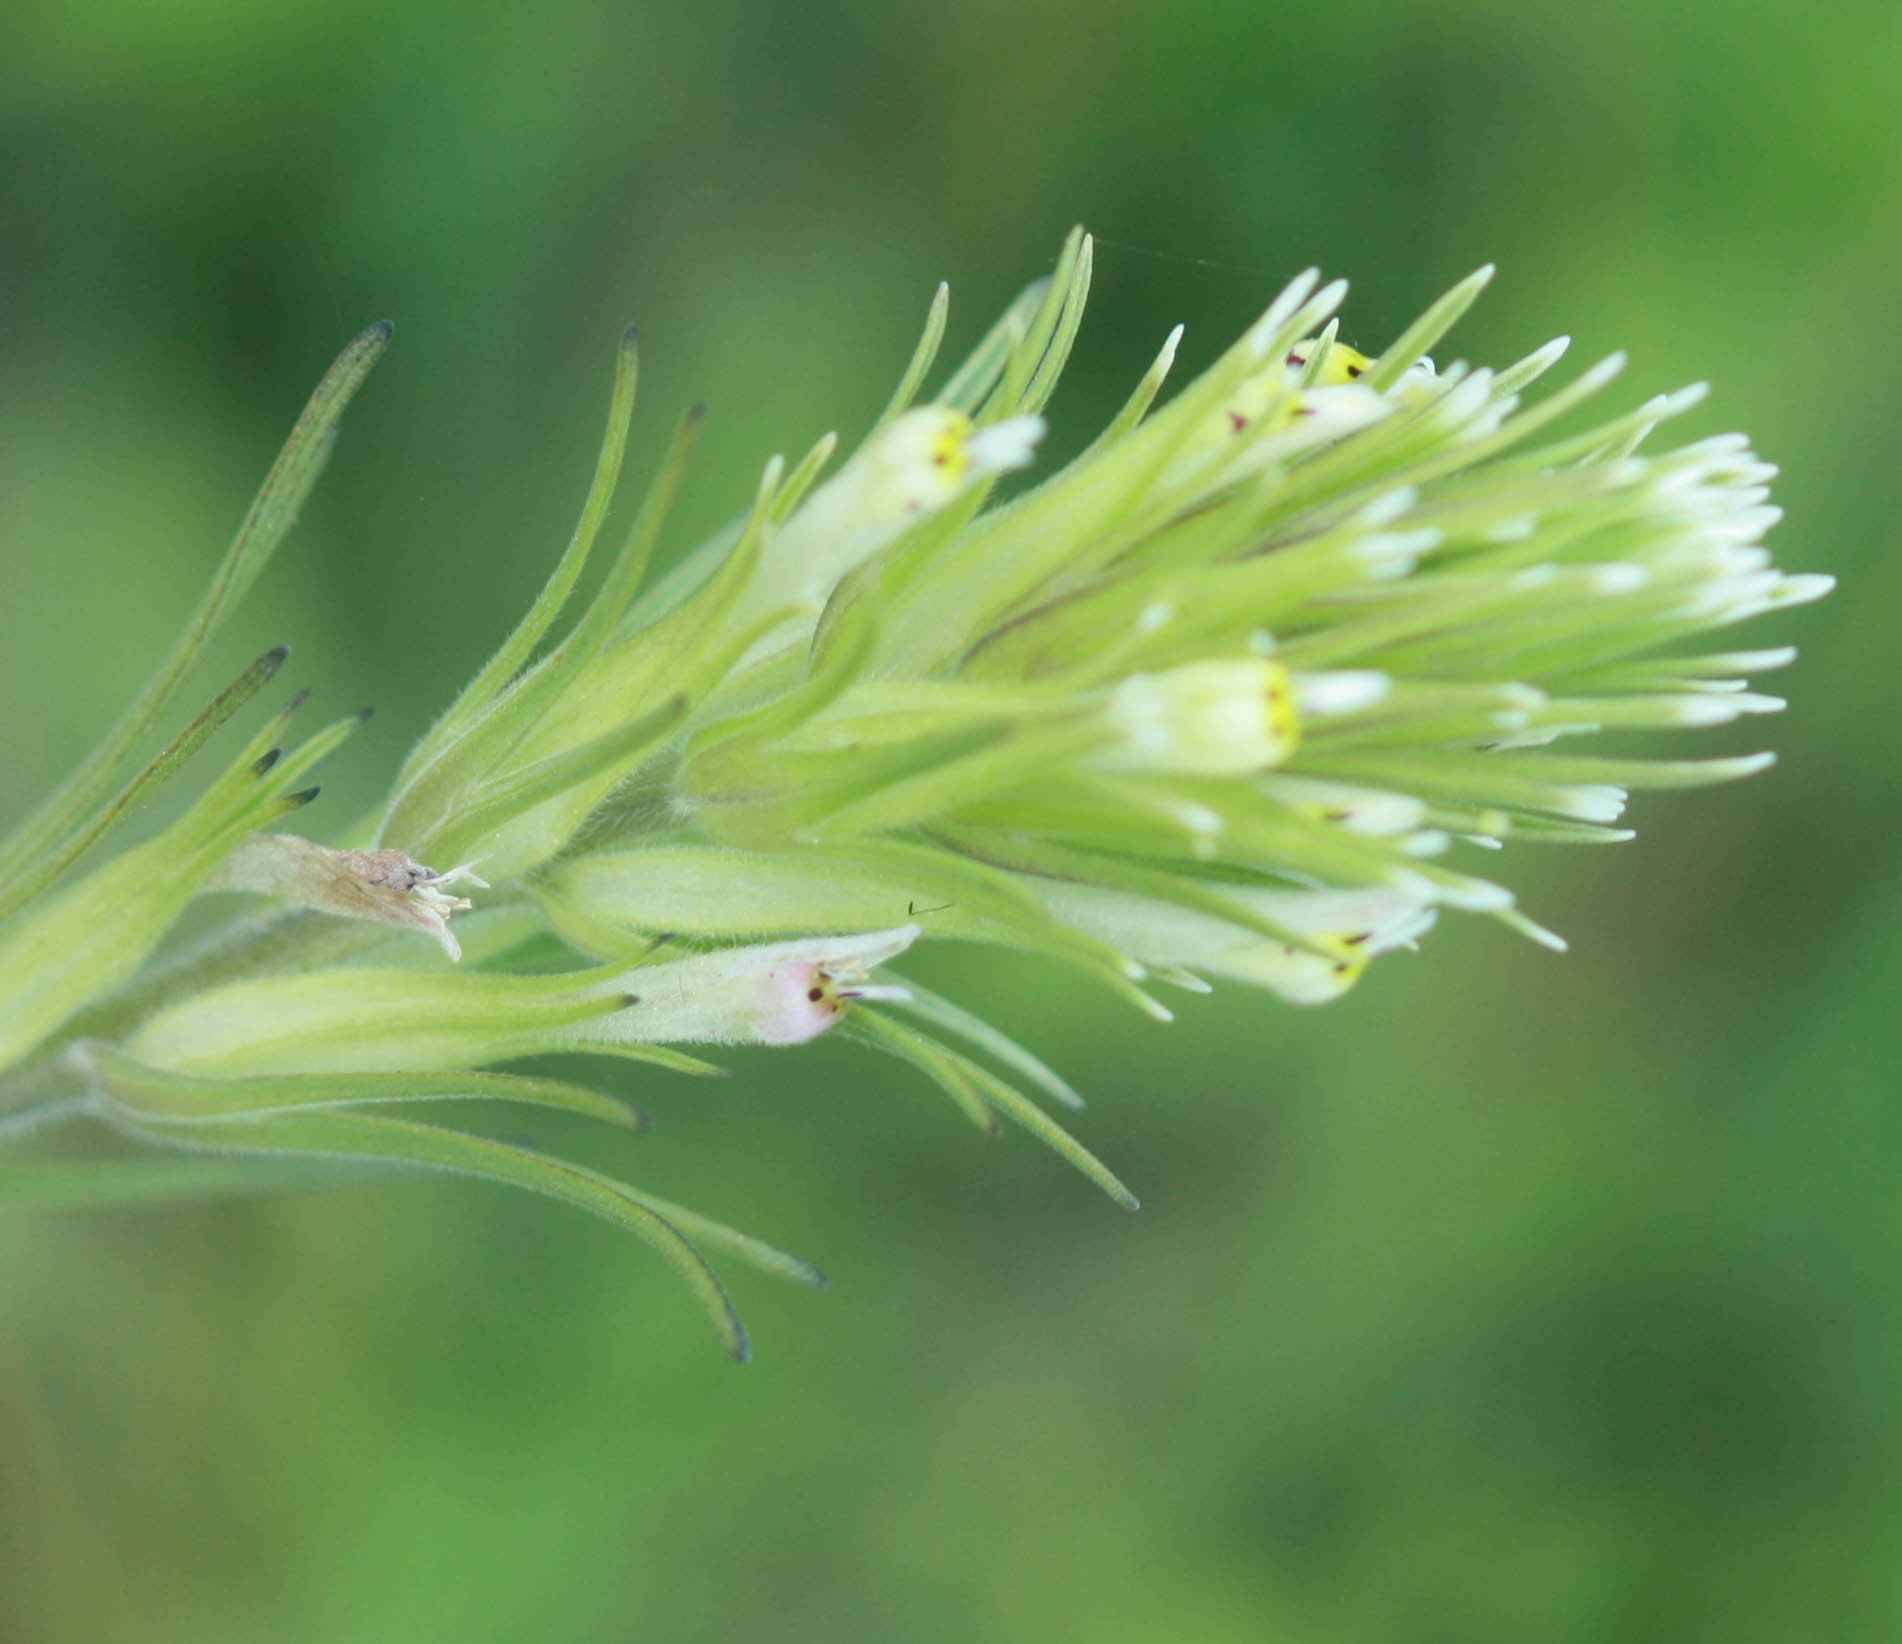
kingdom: Plantae
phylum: Tracheophyta
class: Magnoliopsida
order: Lamiales
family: Orobanchaceae
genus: Castilleja
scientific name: Castilleja attenuata
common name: Valley tassels
